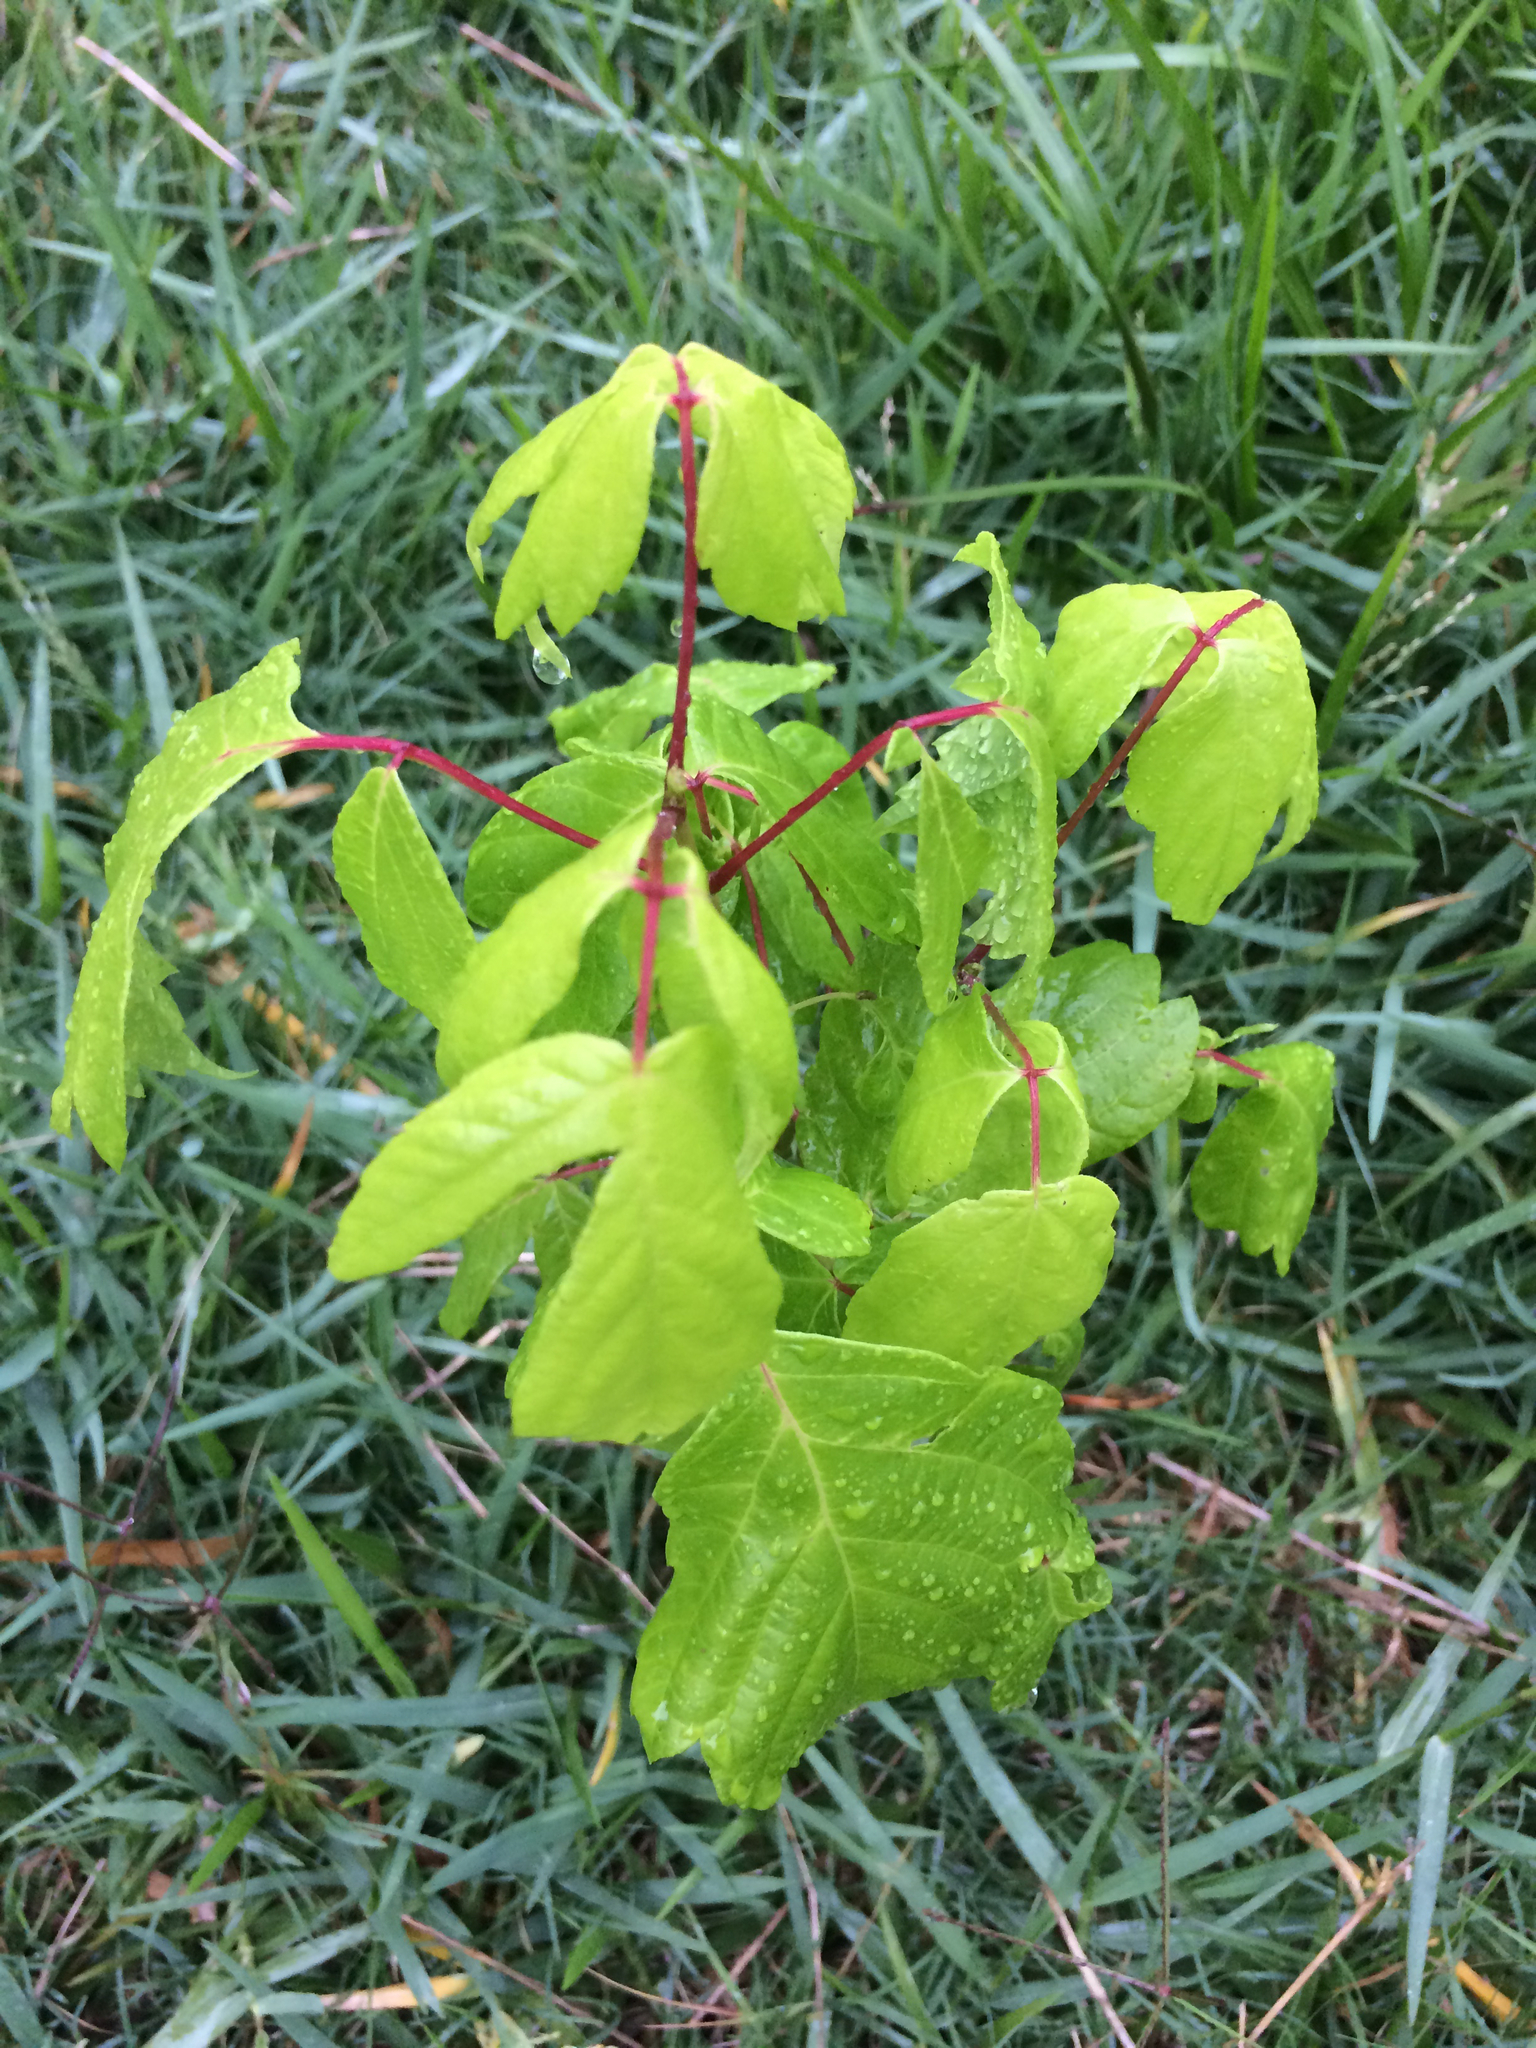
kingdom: Plantae
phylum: Tracheophyta
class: Magnoliopsida
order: Sapindales
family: Sapindaceae
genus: Acer
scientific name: Acer negundo
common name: Ashleaf maple
